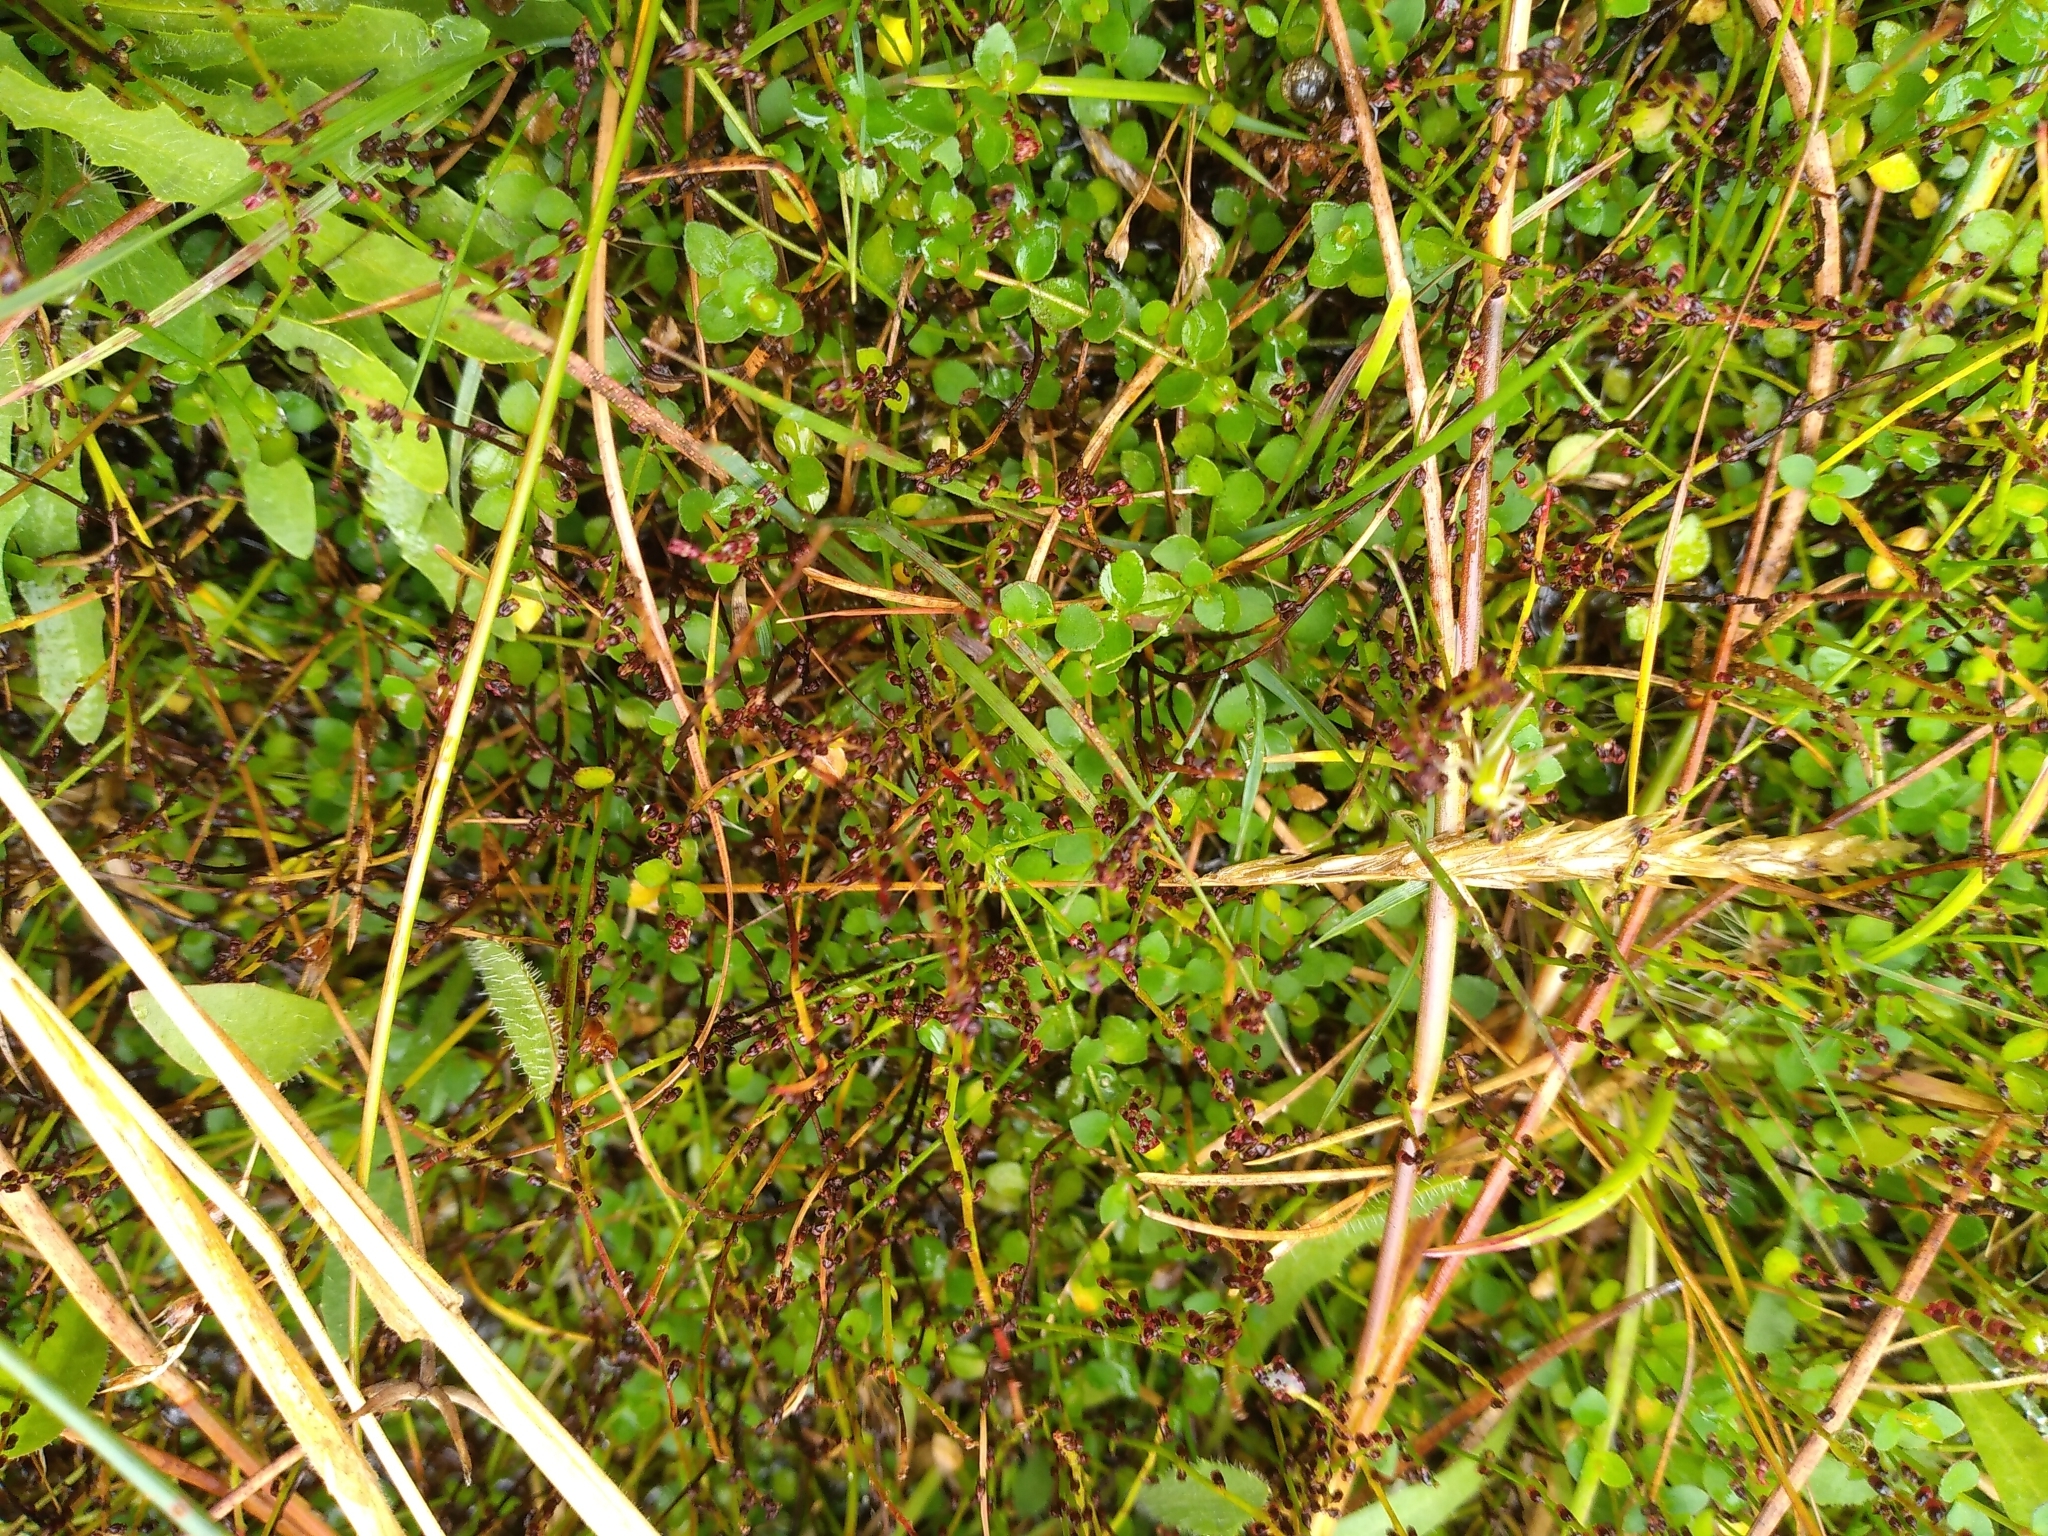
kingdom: Plantae
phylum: Tracheophyta
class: Magnoliopsida
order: Saxifragales
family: Haloragaceae
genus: Gonocarpus
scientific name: Gonocarpus micranthus
